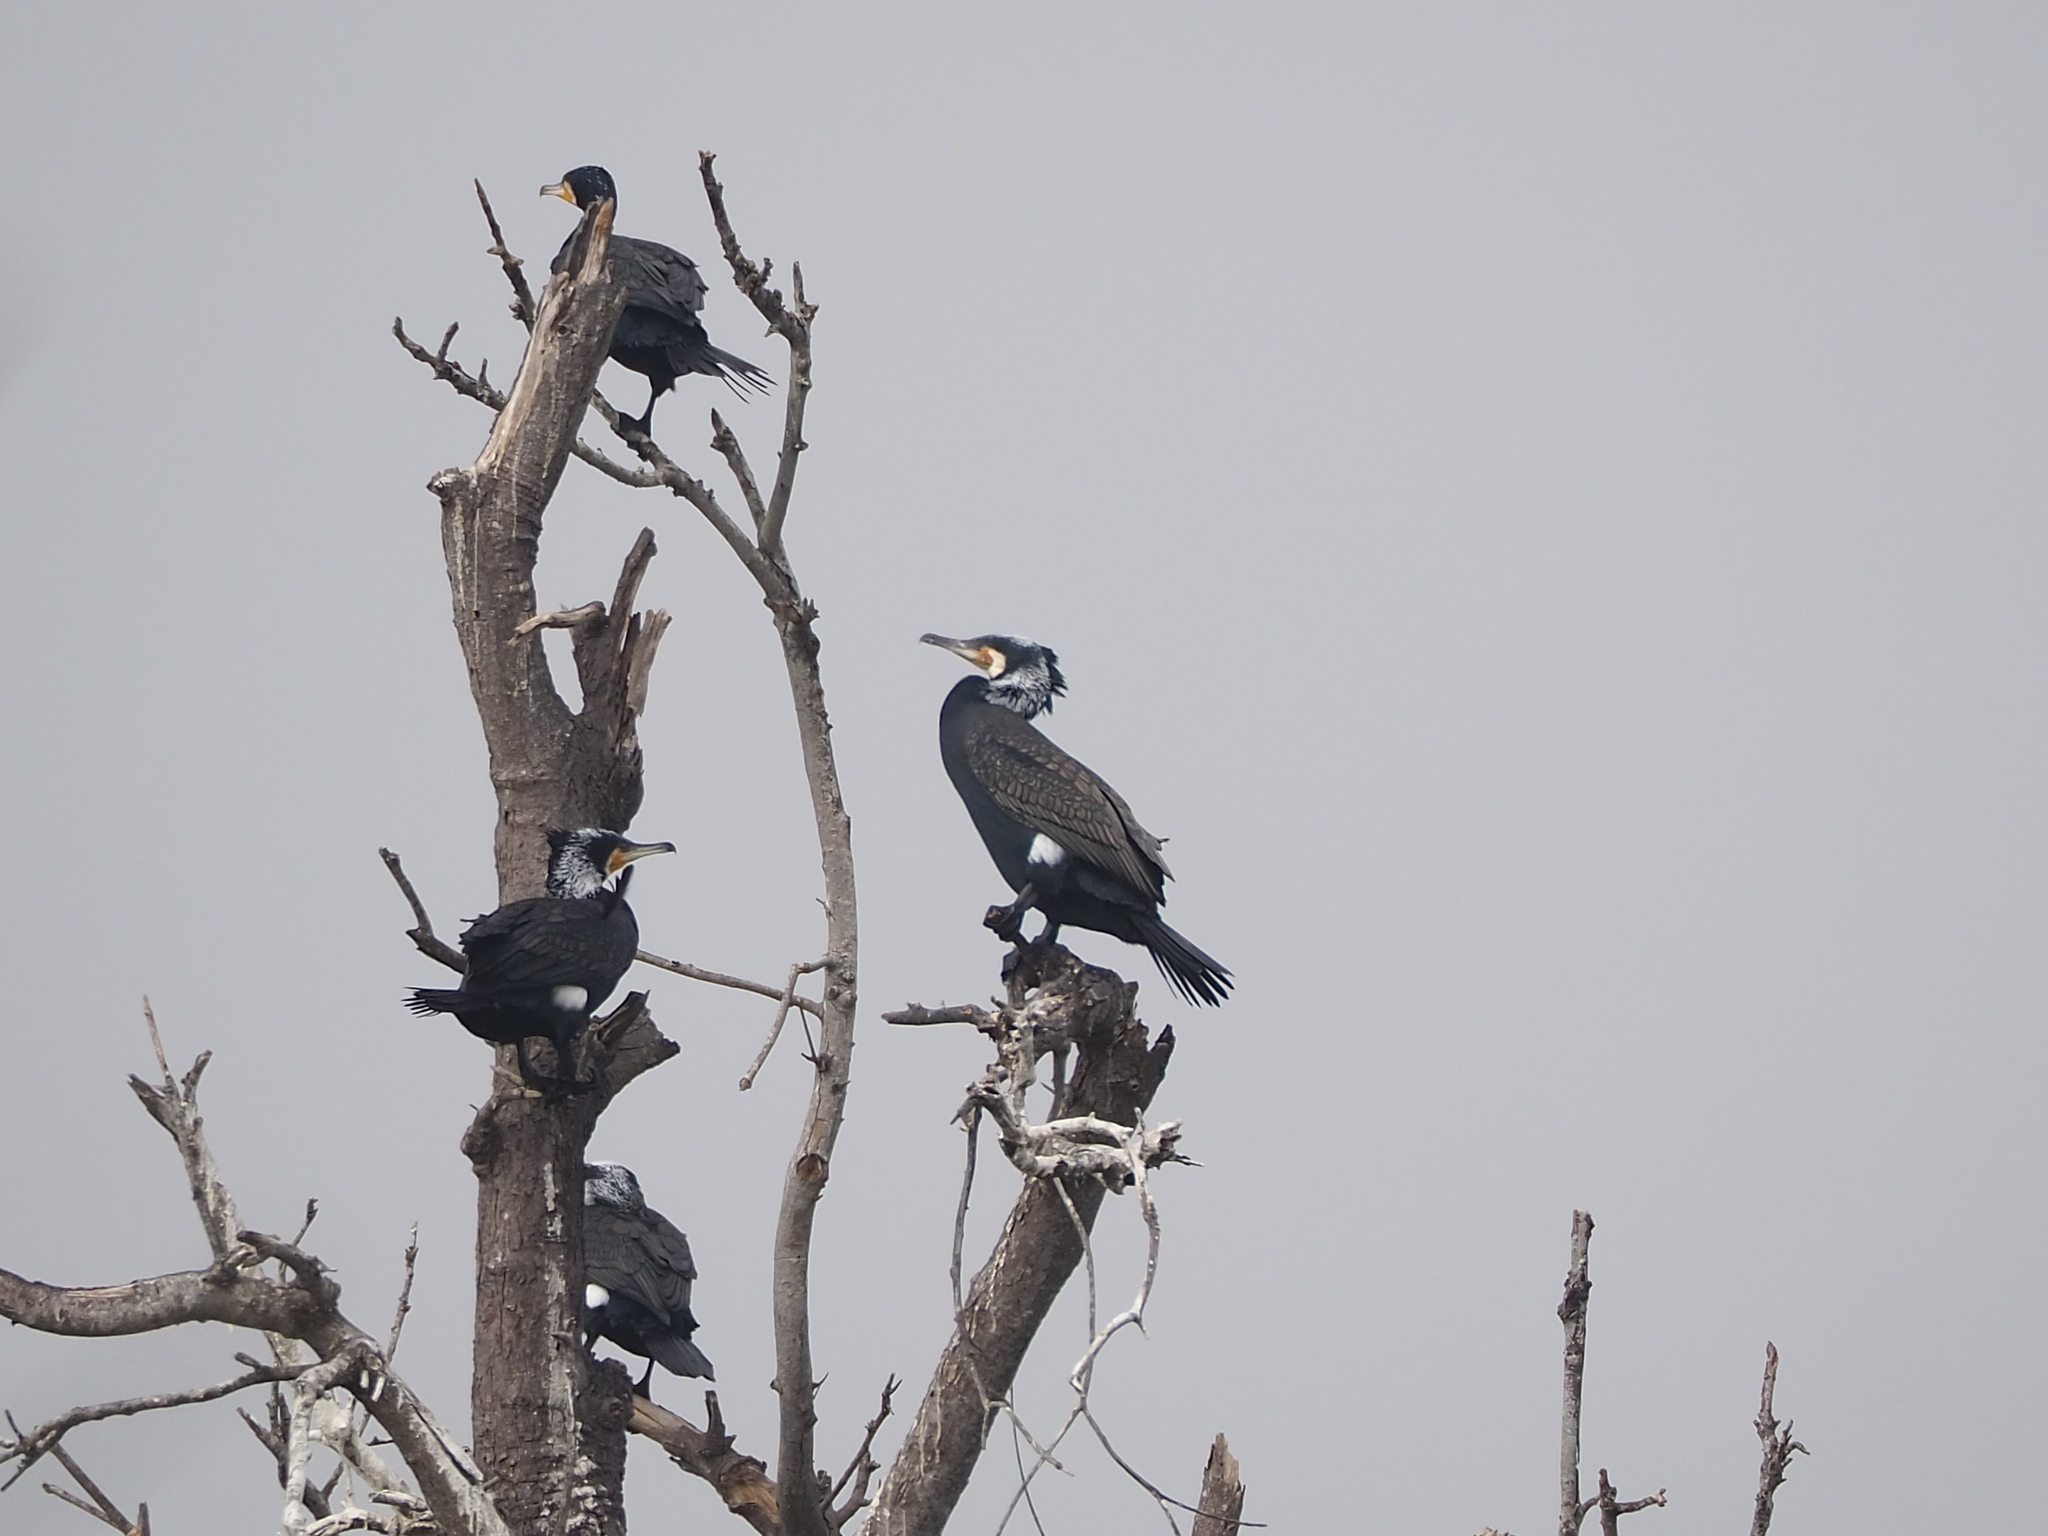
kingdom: Animalia
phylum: Chordata
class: Aves
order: Suliformes
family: Phalacrocoracidae
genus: Phalacrocorax
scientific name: Phalacrocorax carbo
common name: Great cormorant
